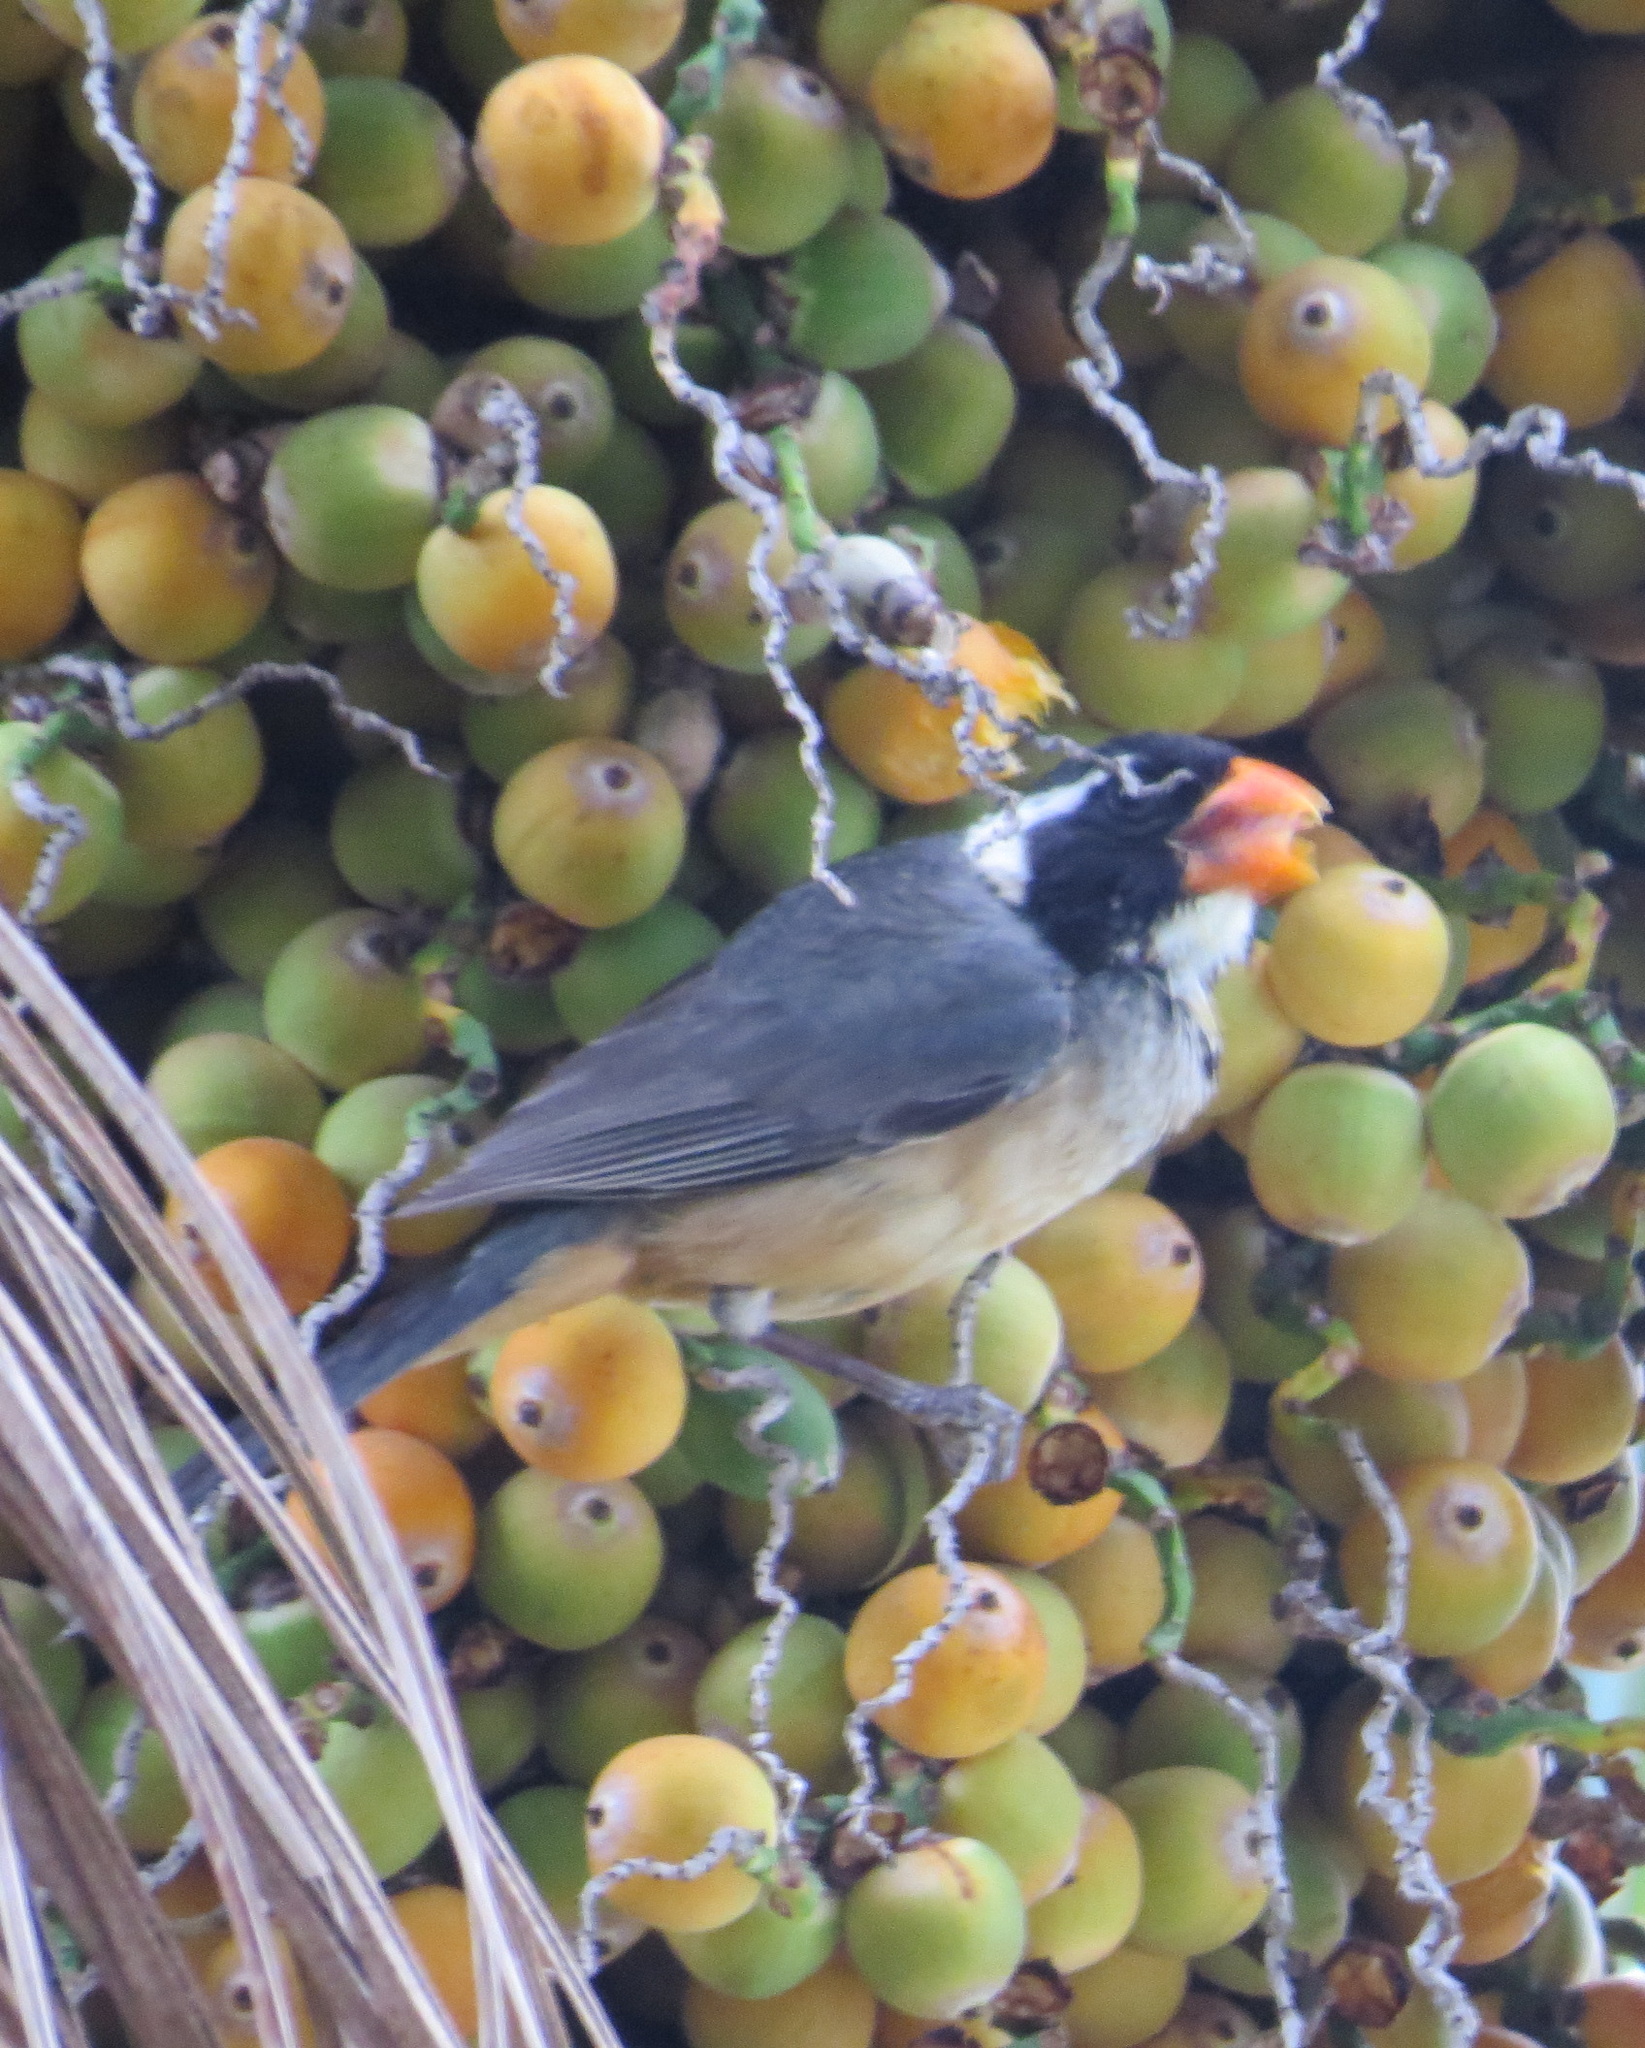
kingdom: Animalia
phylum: Chordata
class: Aves
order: Passeriformes
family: Thraupidae
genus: Saltator
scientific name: Saltator aurantiirostris
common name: Golden-billed saltator
